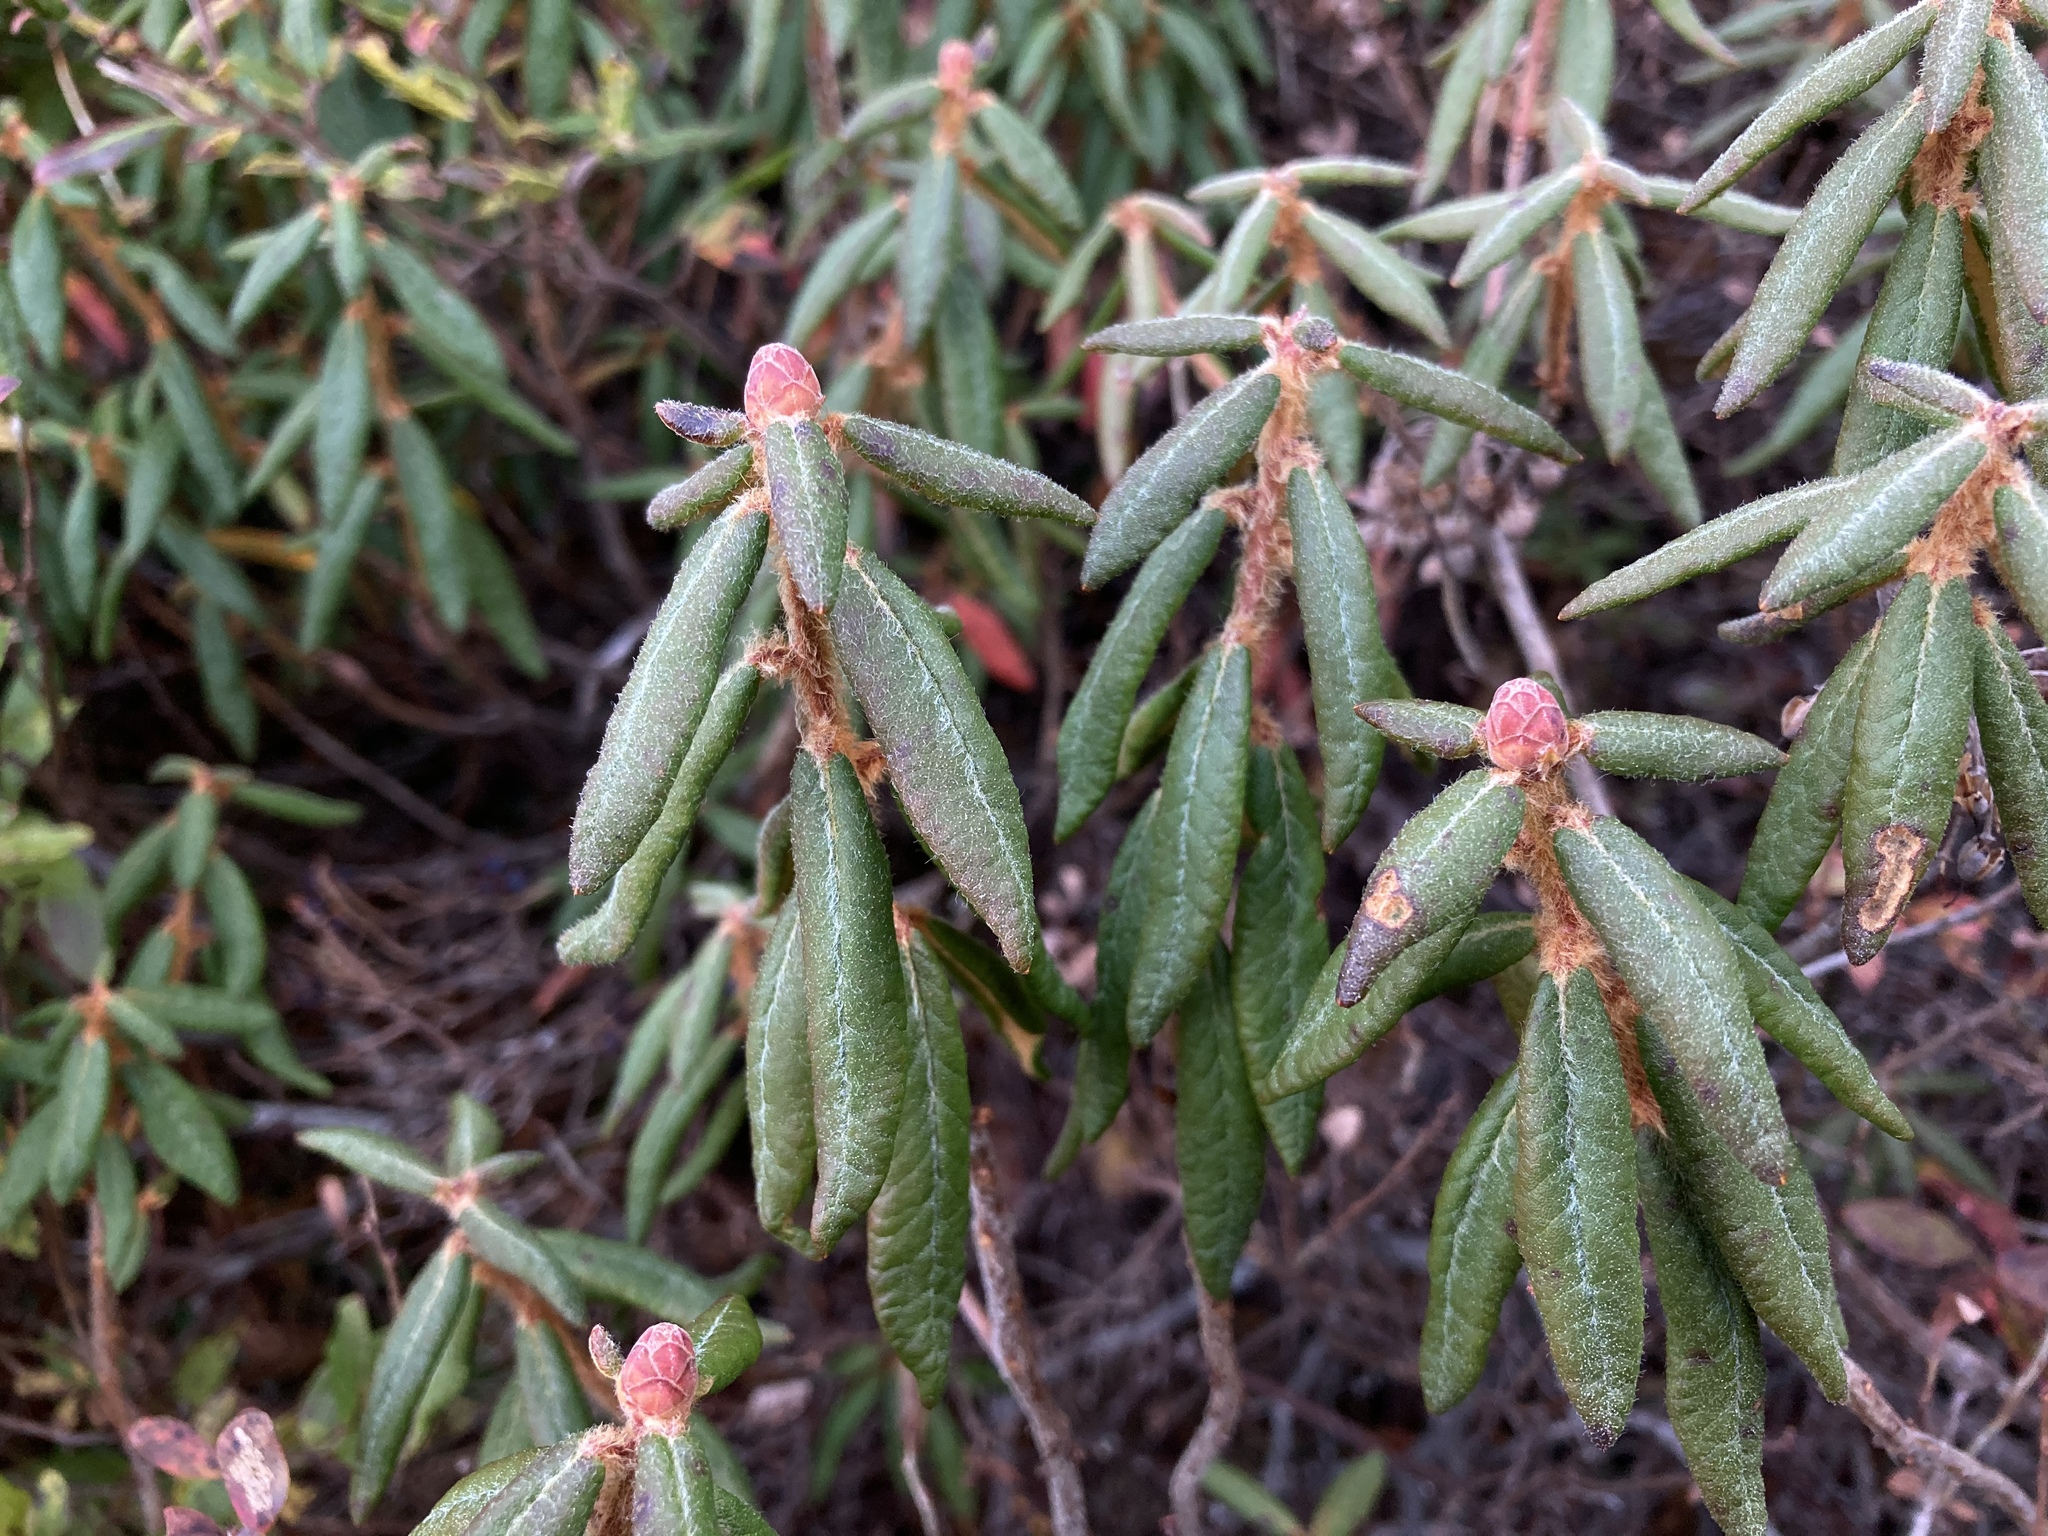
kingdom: Plantae
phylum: Tracheophyta
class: Magnoliopsida
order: Ericales
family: Ericaceae
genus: Rhododendron
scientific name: Rhododendron groenlandicum
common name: Bog labrador tea
